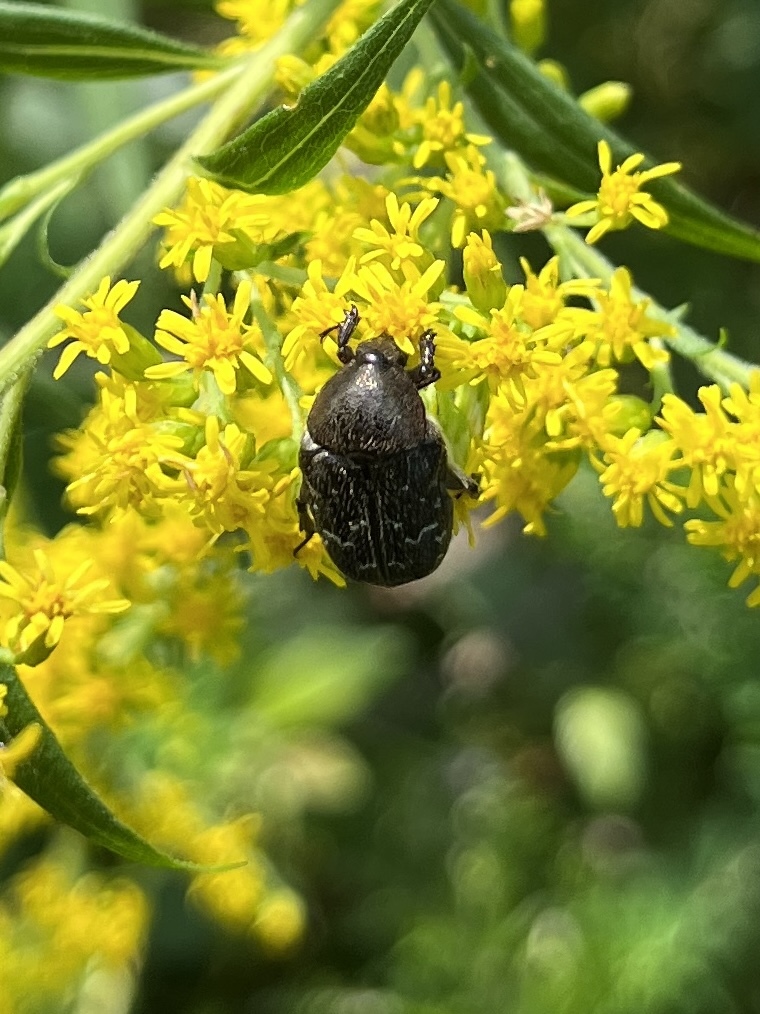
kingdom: Animalia
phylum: Arthropoda
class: Insecta
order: Coleoptera
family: Scarabaeidae
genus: Euphoria
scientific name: Euphoria sepulcralis
